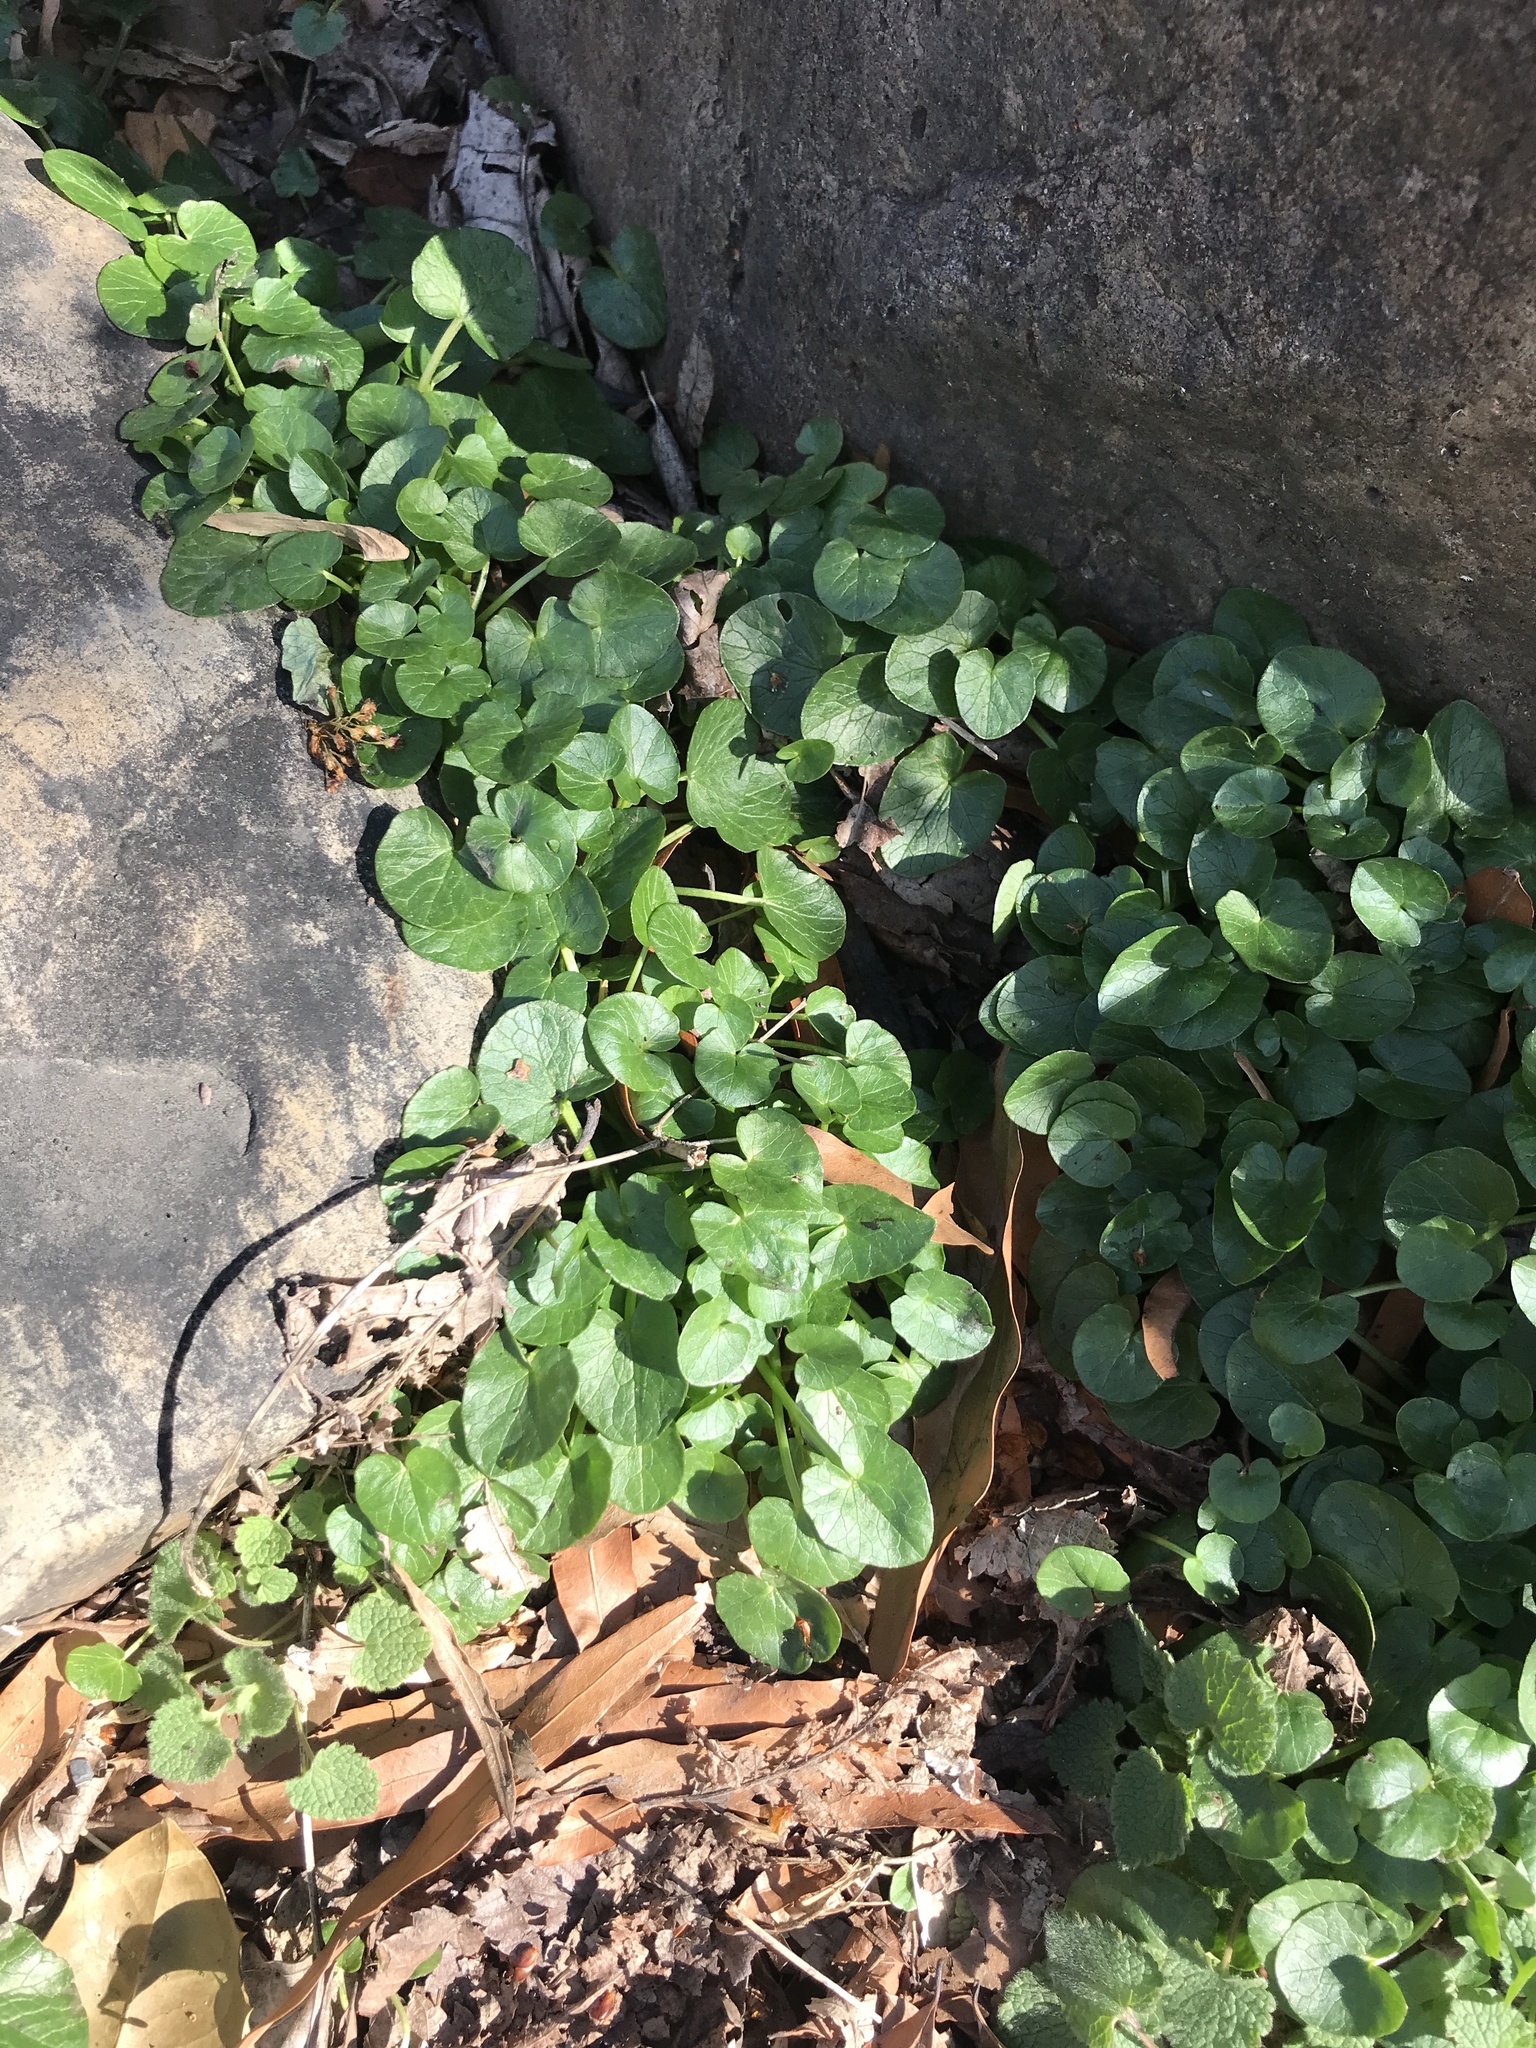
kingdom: Plantae
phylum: Tracheophyta
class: Magnoliopsida
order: Ranunculales
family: Ranunculaceae
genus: Ficaria
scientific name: Ficaria verna
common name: Lesser celandine
